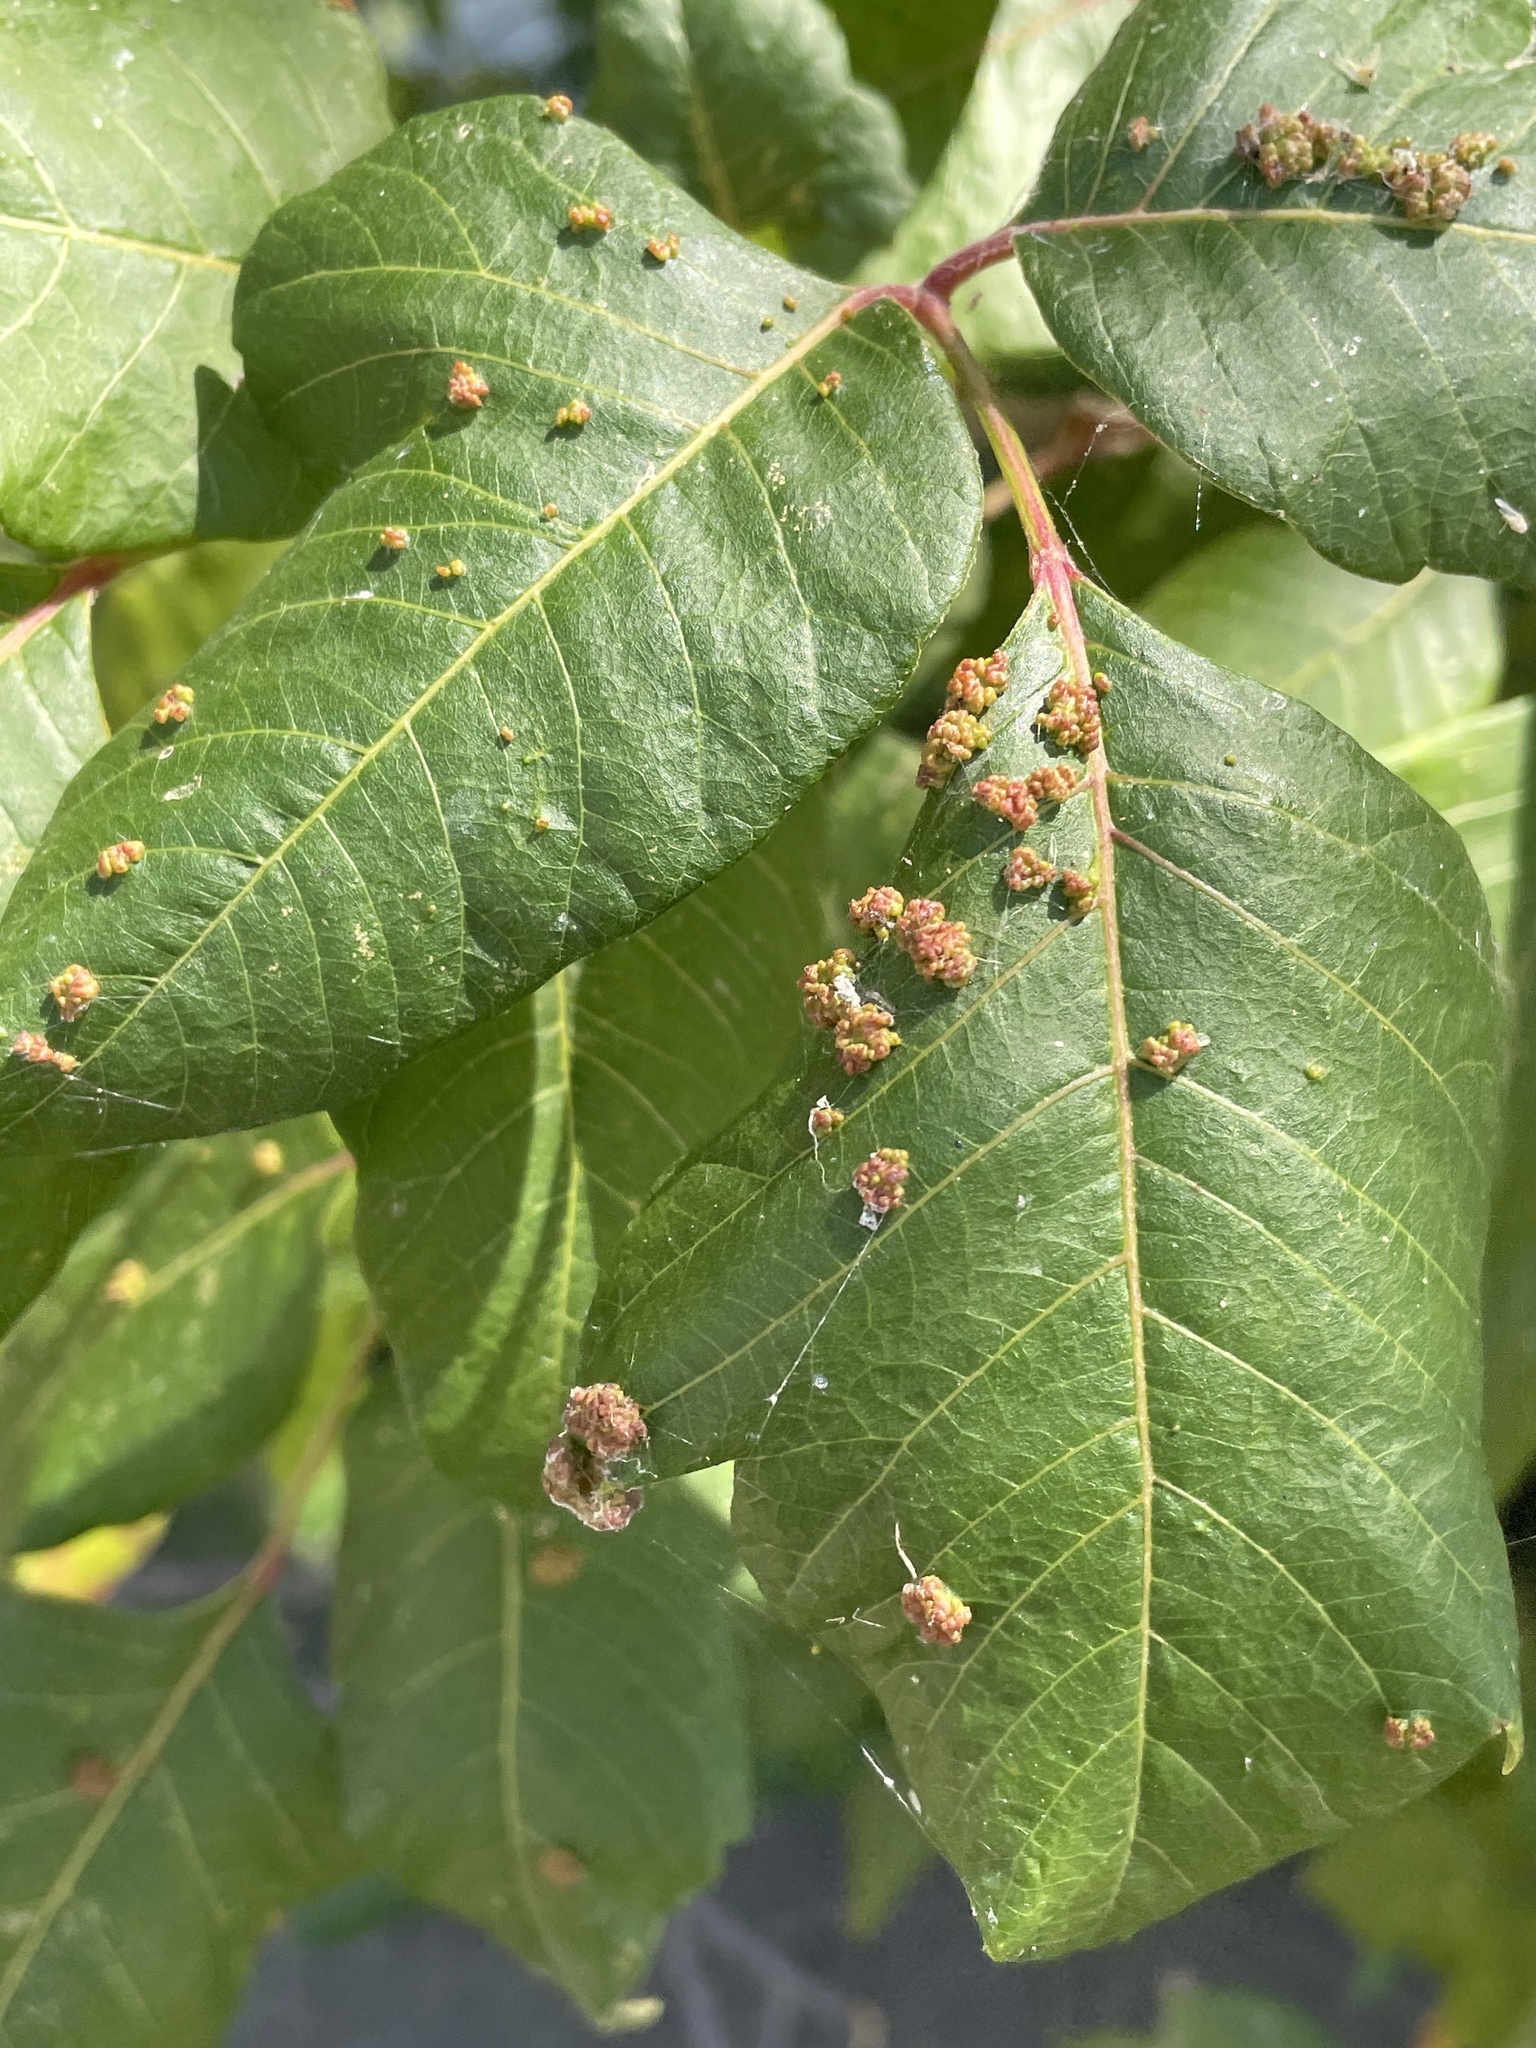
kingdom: Animalia
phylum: Arthropoda
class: Arachnida
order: Trombidiformes
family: Eriophyidae
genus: Aculops
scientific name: Aculops
